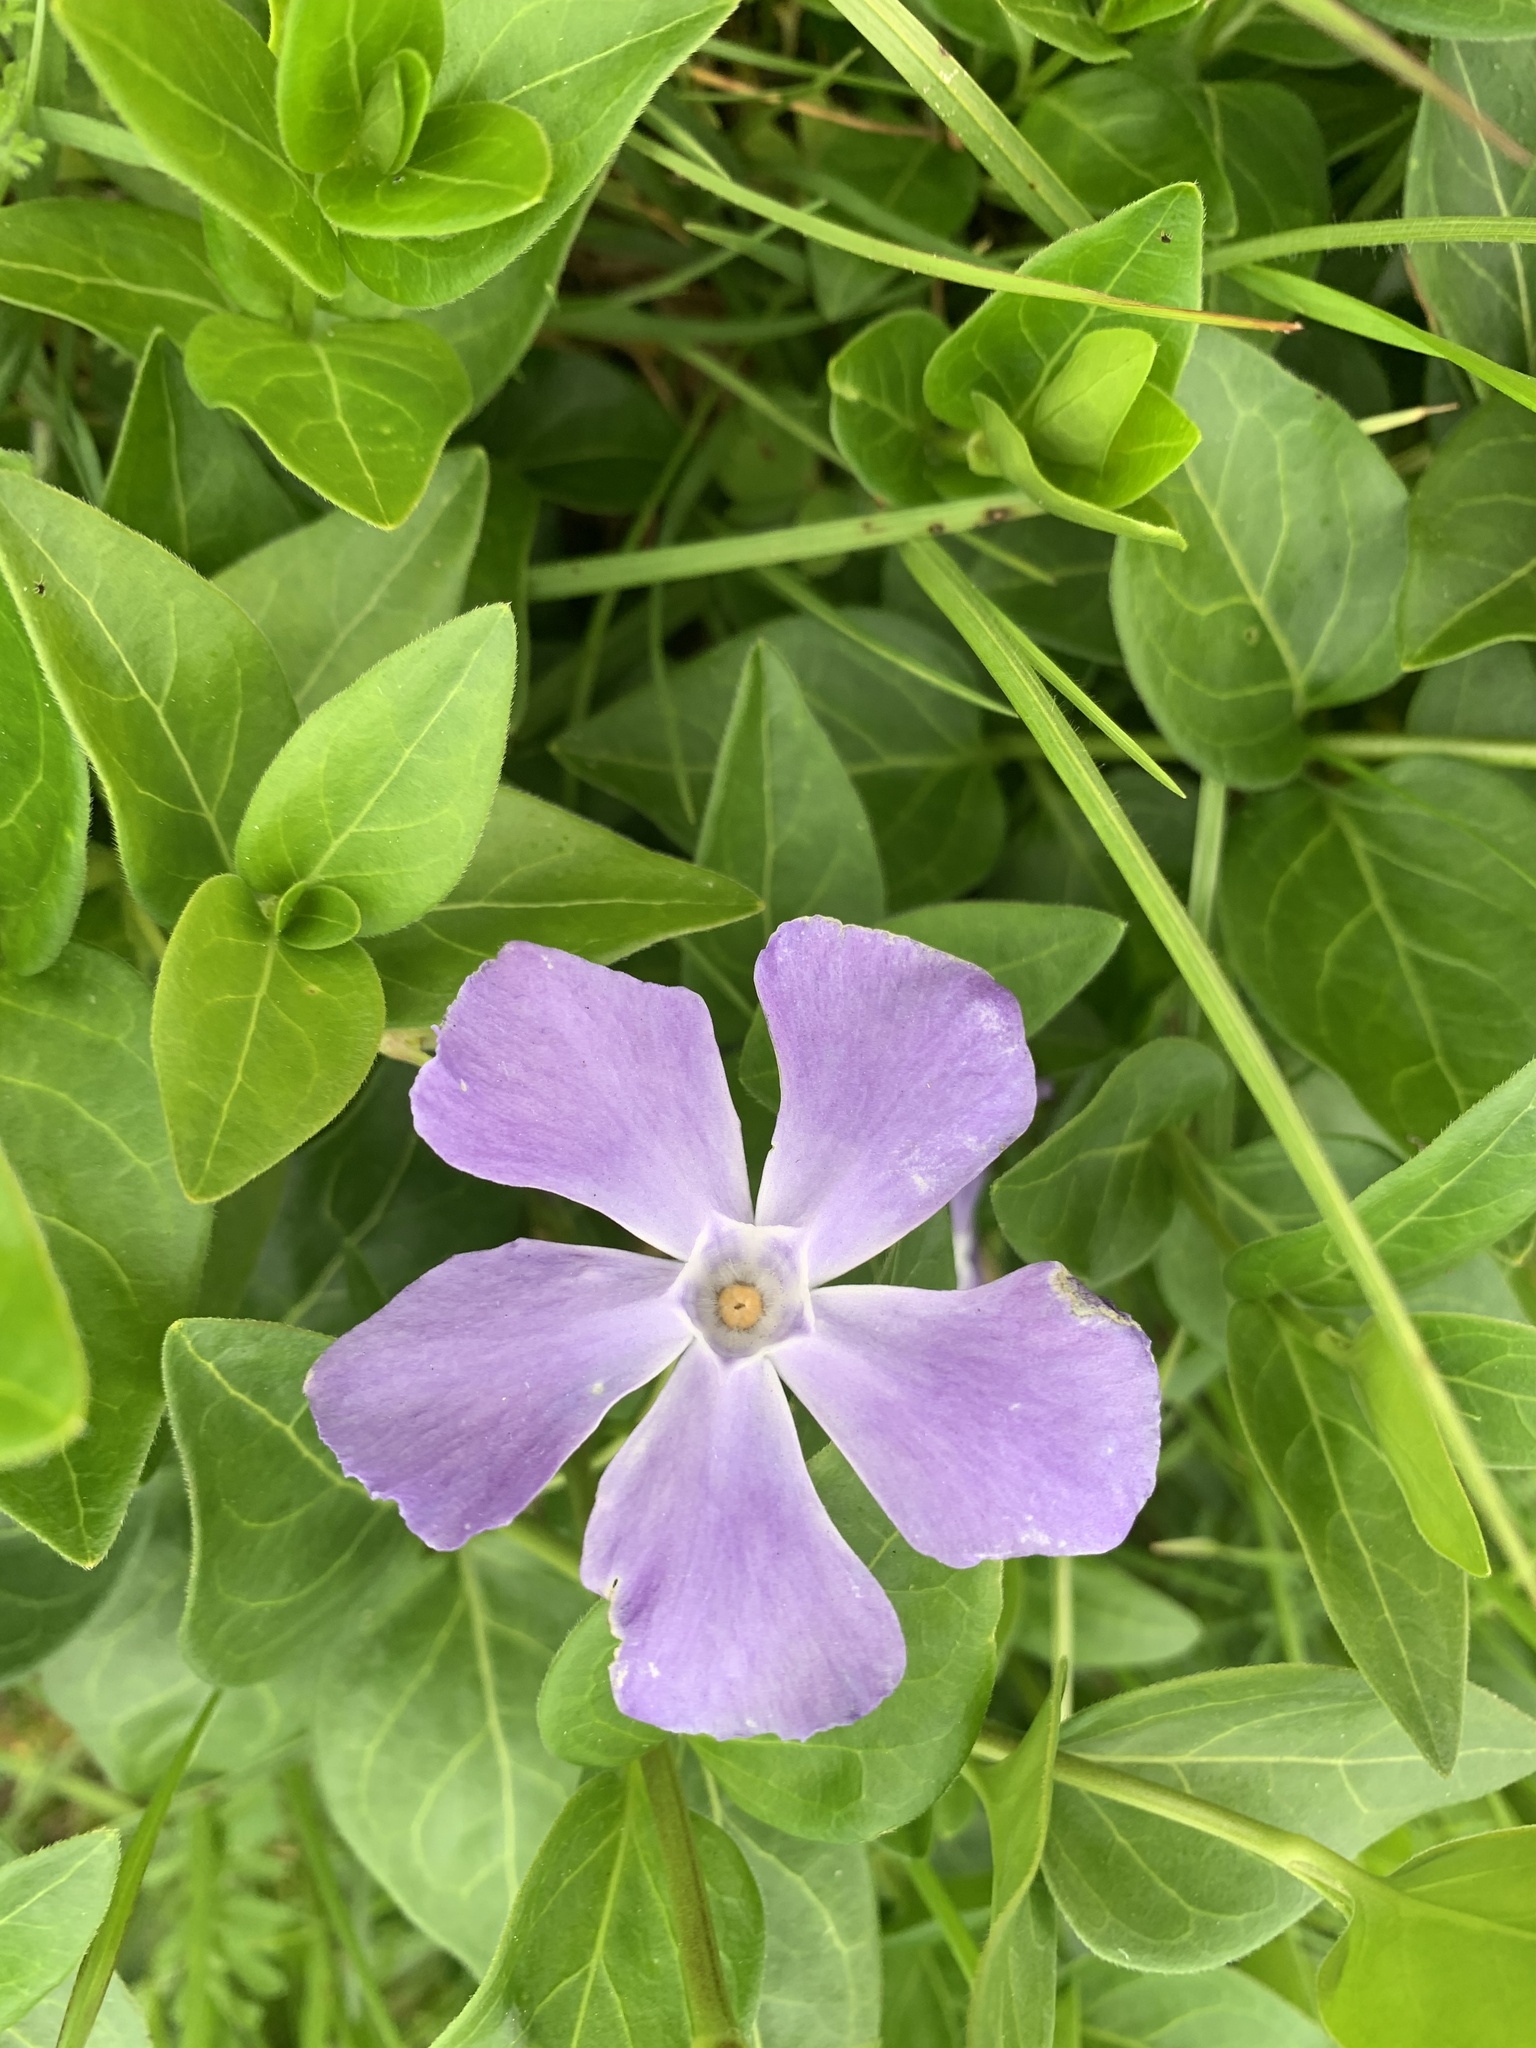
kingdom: Plantae
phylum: Tracheophyta
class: Magnoliopsida
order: Gentianales
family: Apocynaceae
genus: Vinca
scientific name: Vinca major
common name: Greater periwinkle
